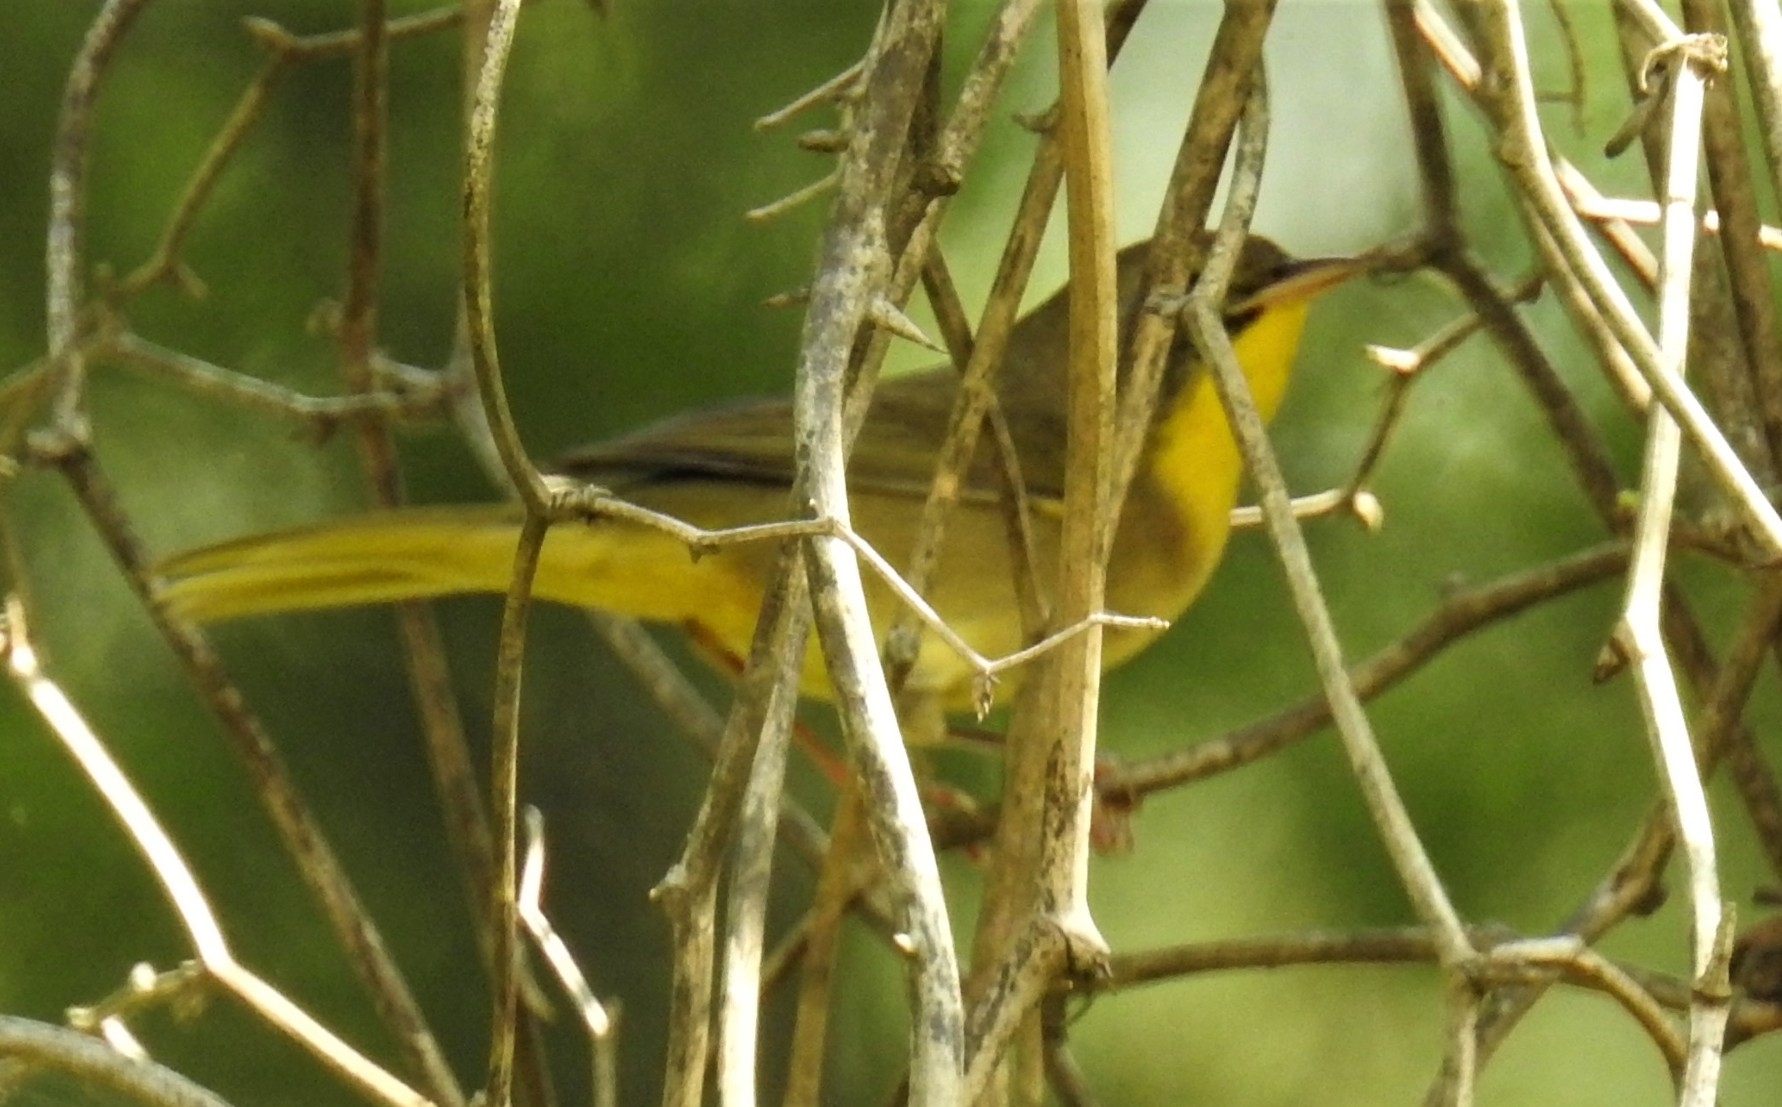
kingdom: Animalia
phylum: Chordata
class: Aves
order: Passeriformes
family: Parulidae
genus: Geothlypis
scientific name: Geothlypis trichas
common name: Common yellowthroat
